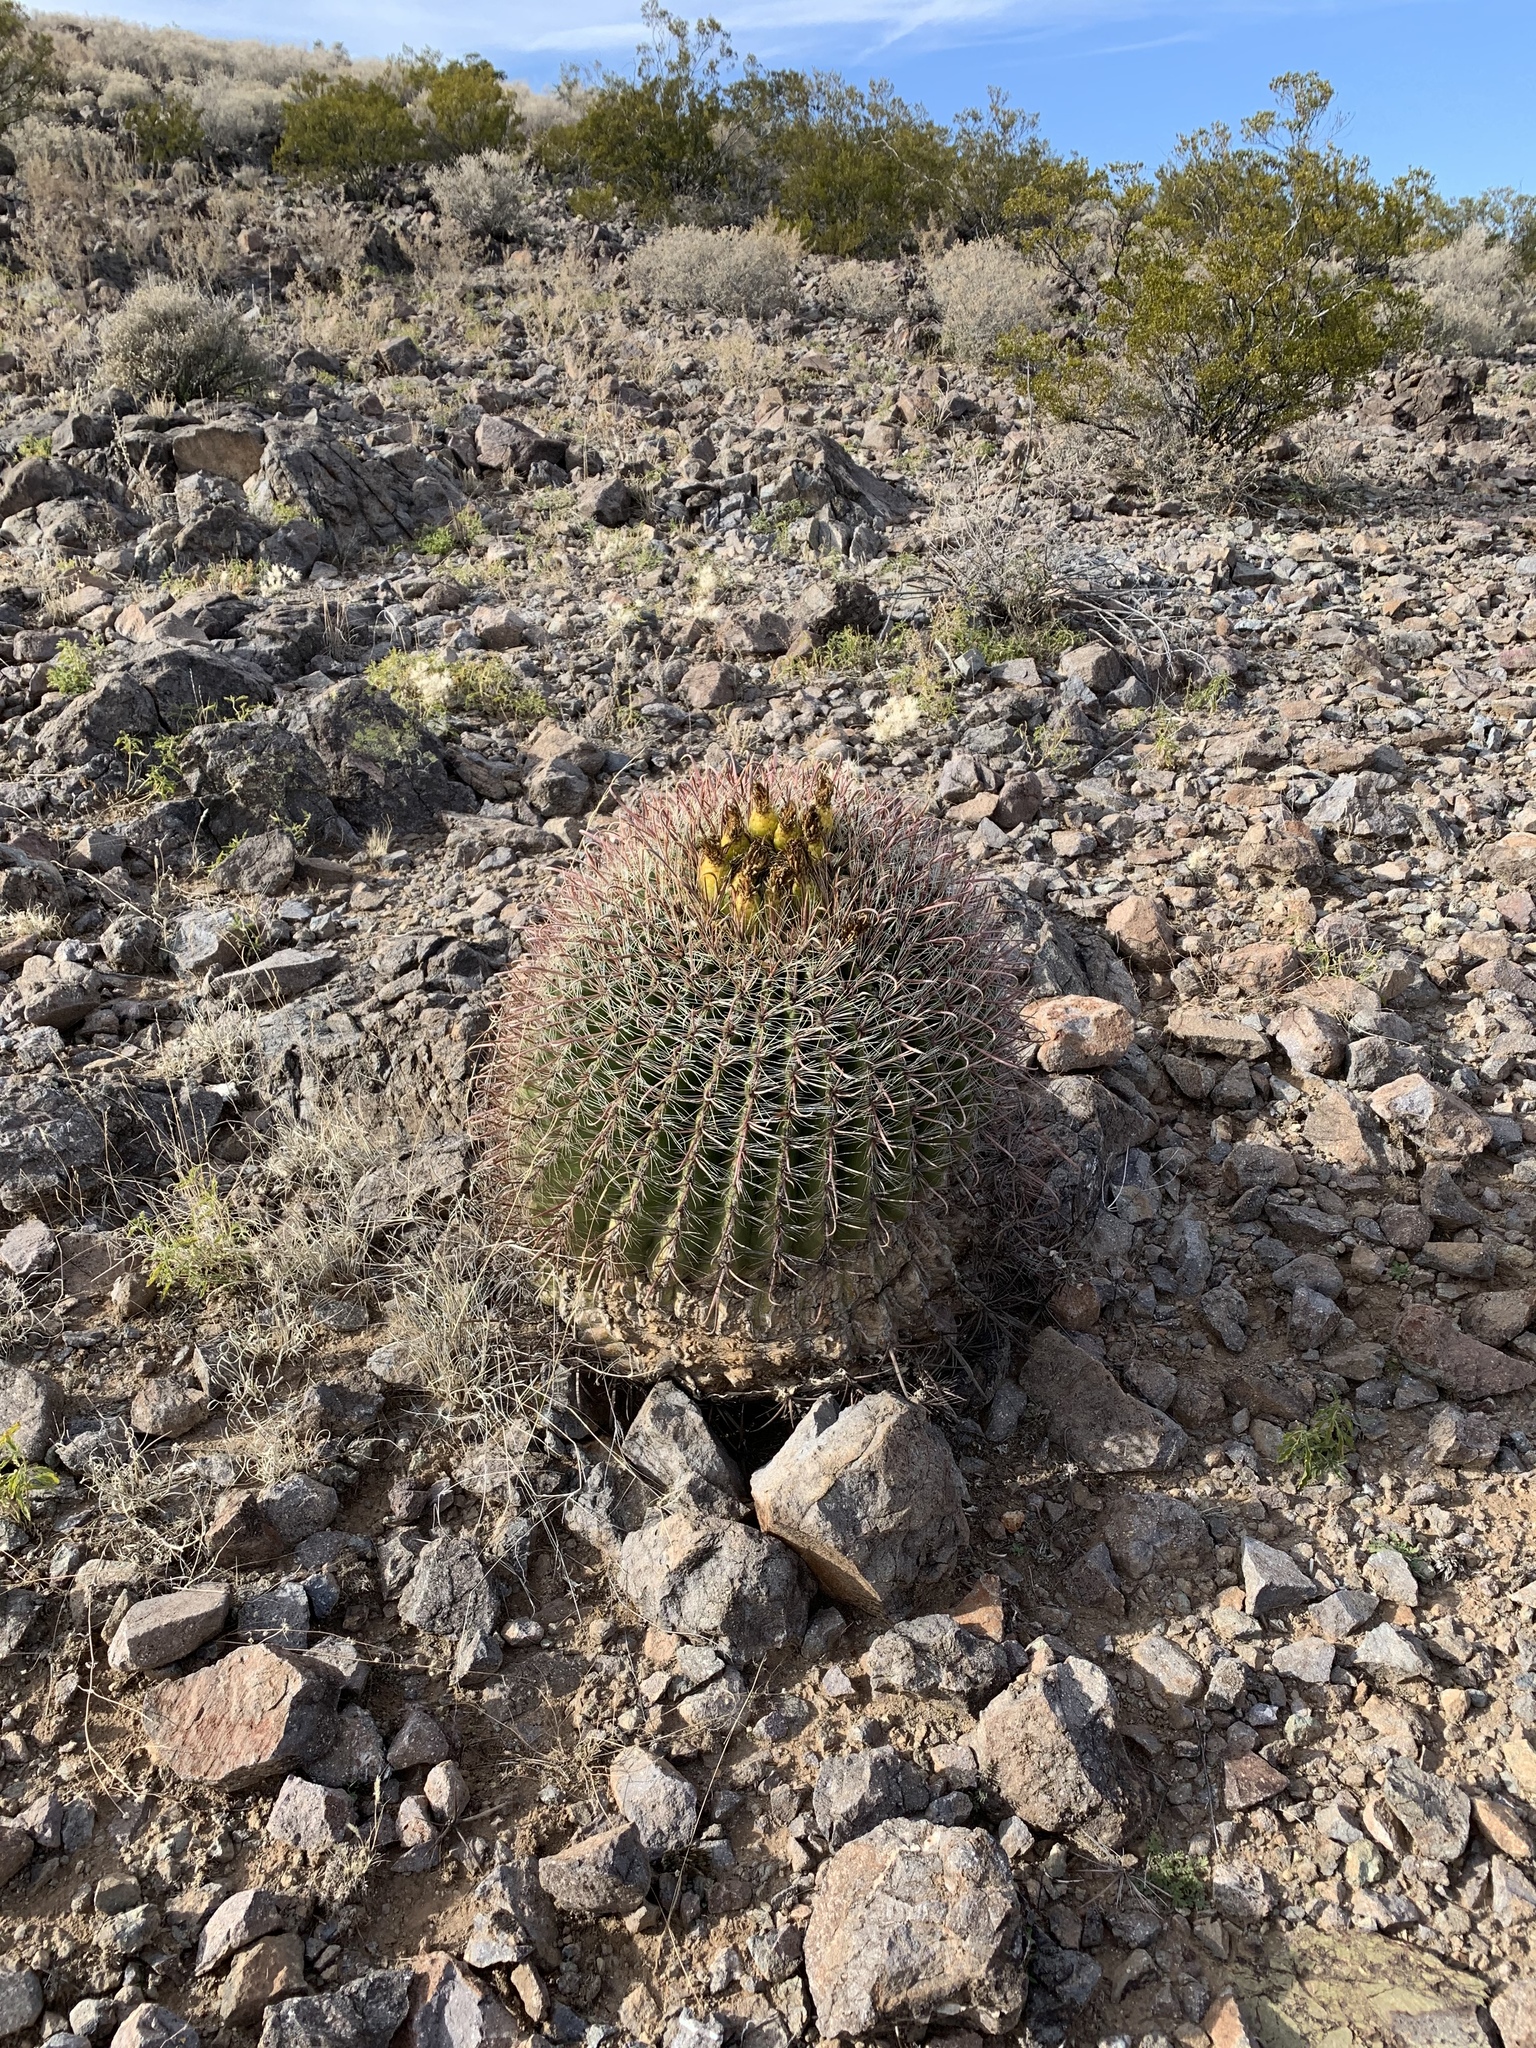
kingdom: Plantae
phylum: Tracheophyta
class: Magnoliopsida
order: Caryophyllales
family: Cactaceae
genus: Ferocactus
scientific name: Ferocactus wislizeni
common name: Candy barrel cactus
